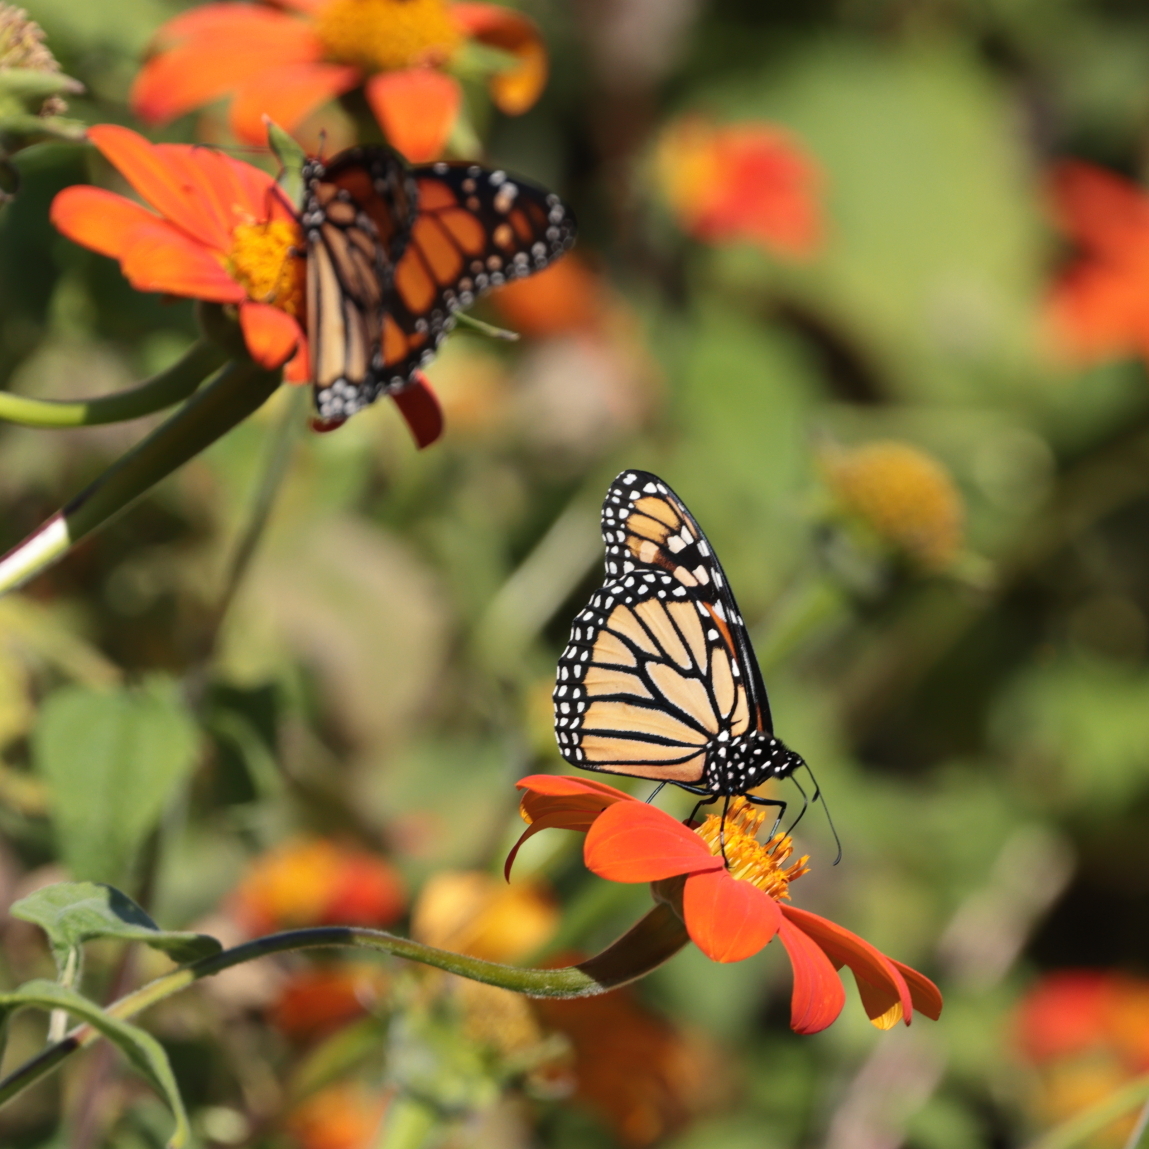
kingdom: Animalia
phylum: Arthropoda
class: Insecta
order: Lepidoptera
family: Nymphalidae
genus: Danaus
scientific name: Danaus plexippus
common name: Monarch
